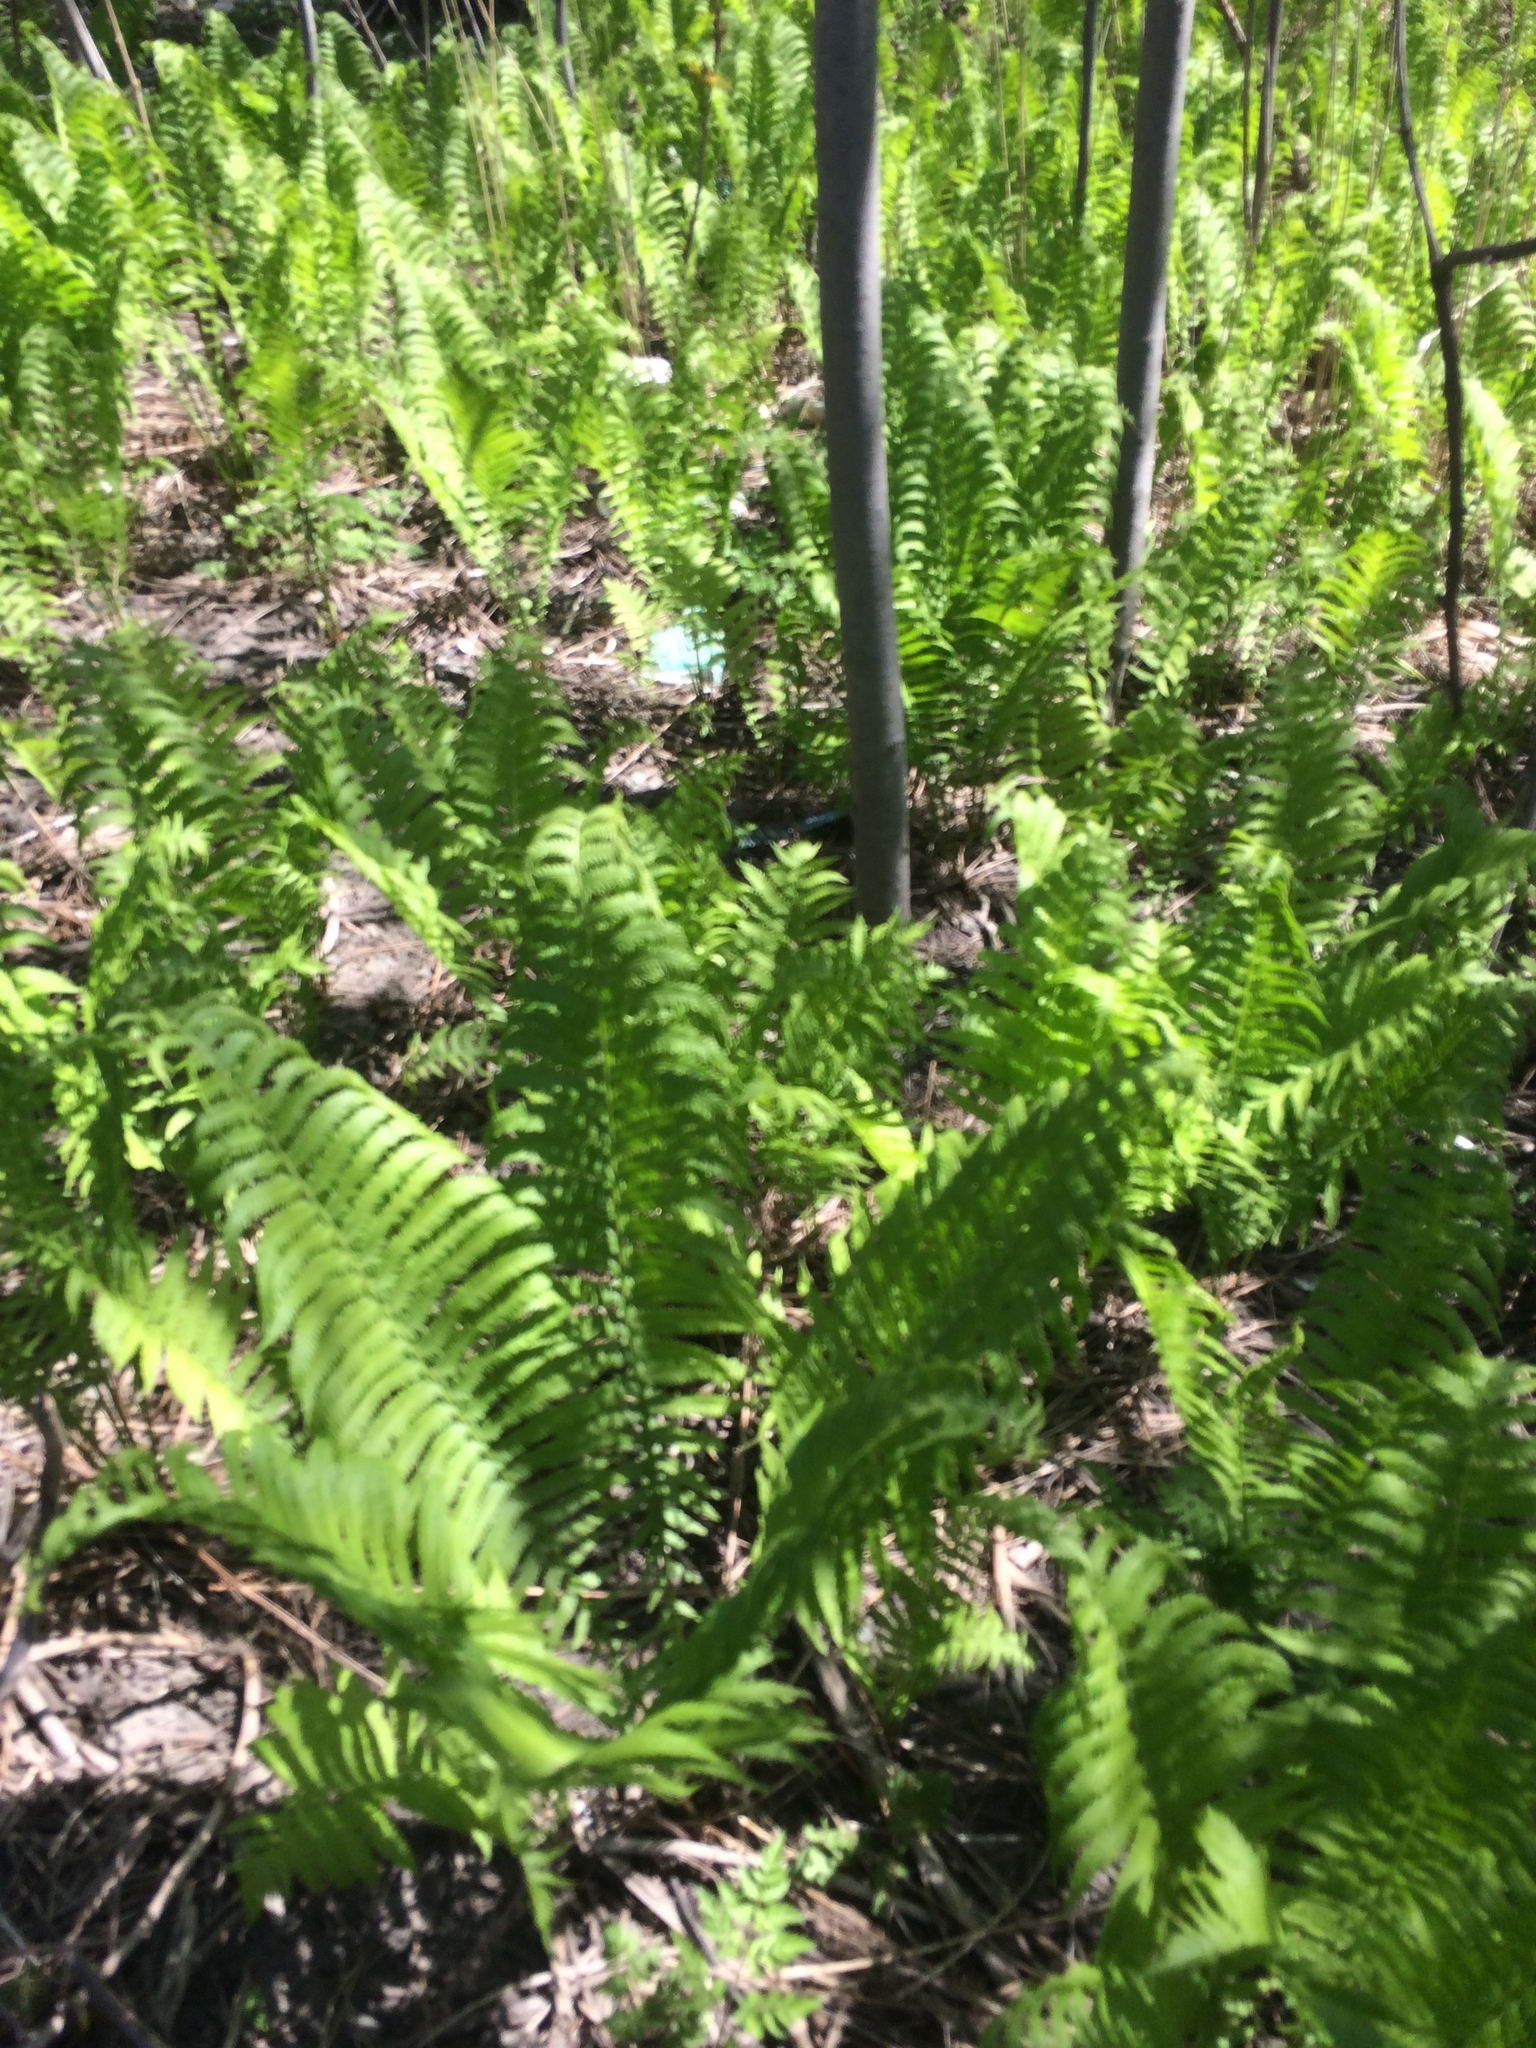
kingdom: Plantae
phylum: Tracheophyta
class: Polypodiopsida
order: Polypodiales
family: Onocleaceae
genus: Matteuccia
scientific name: Matteuccia struthiopteris
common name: Ostrich fern
